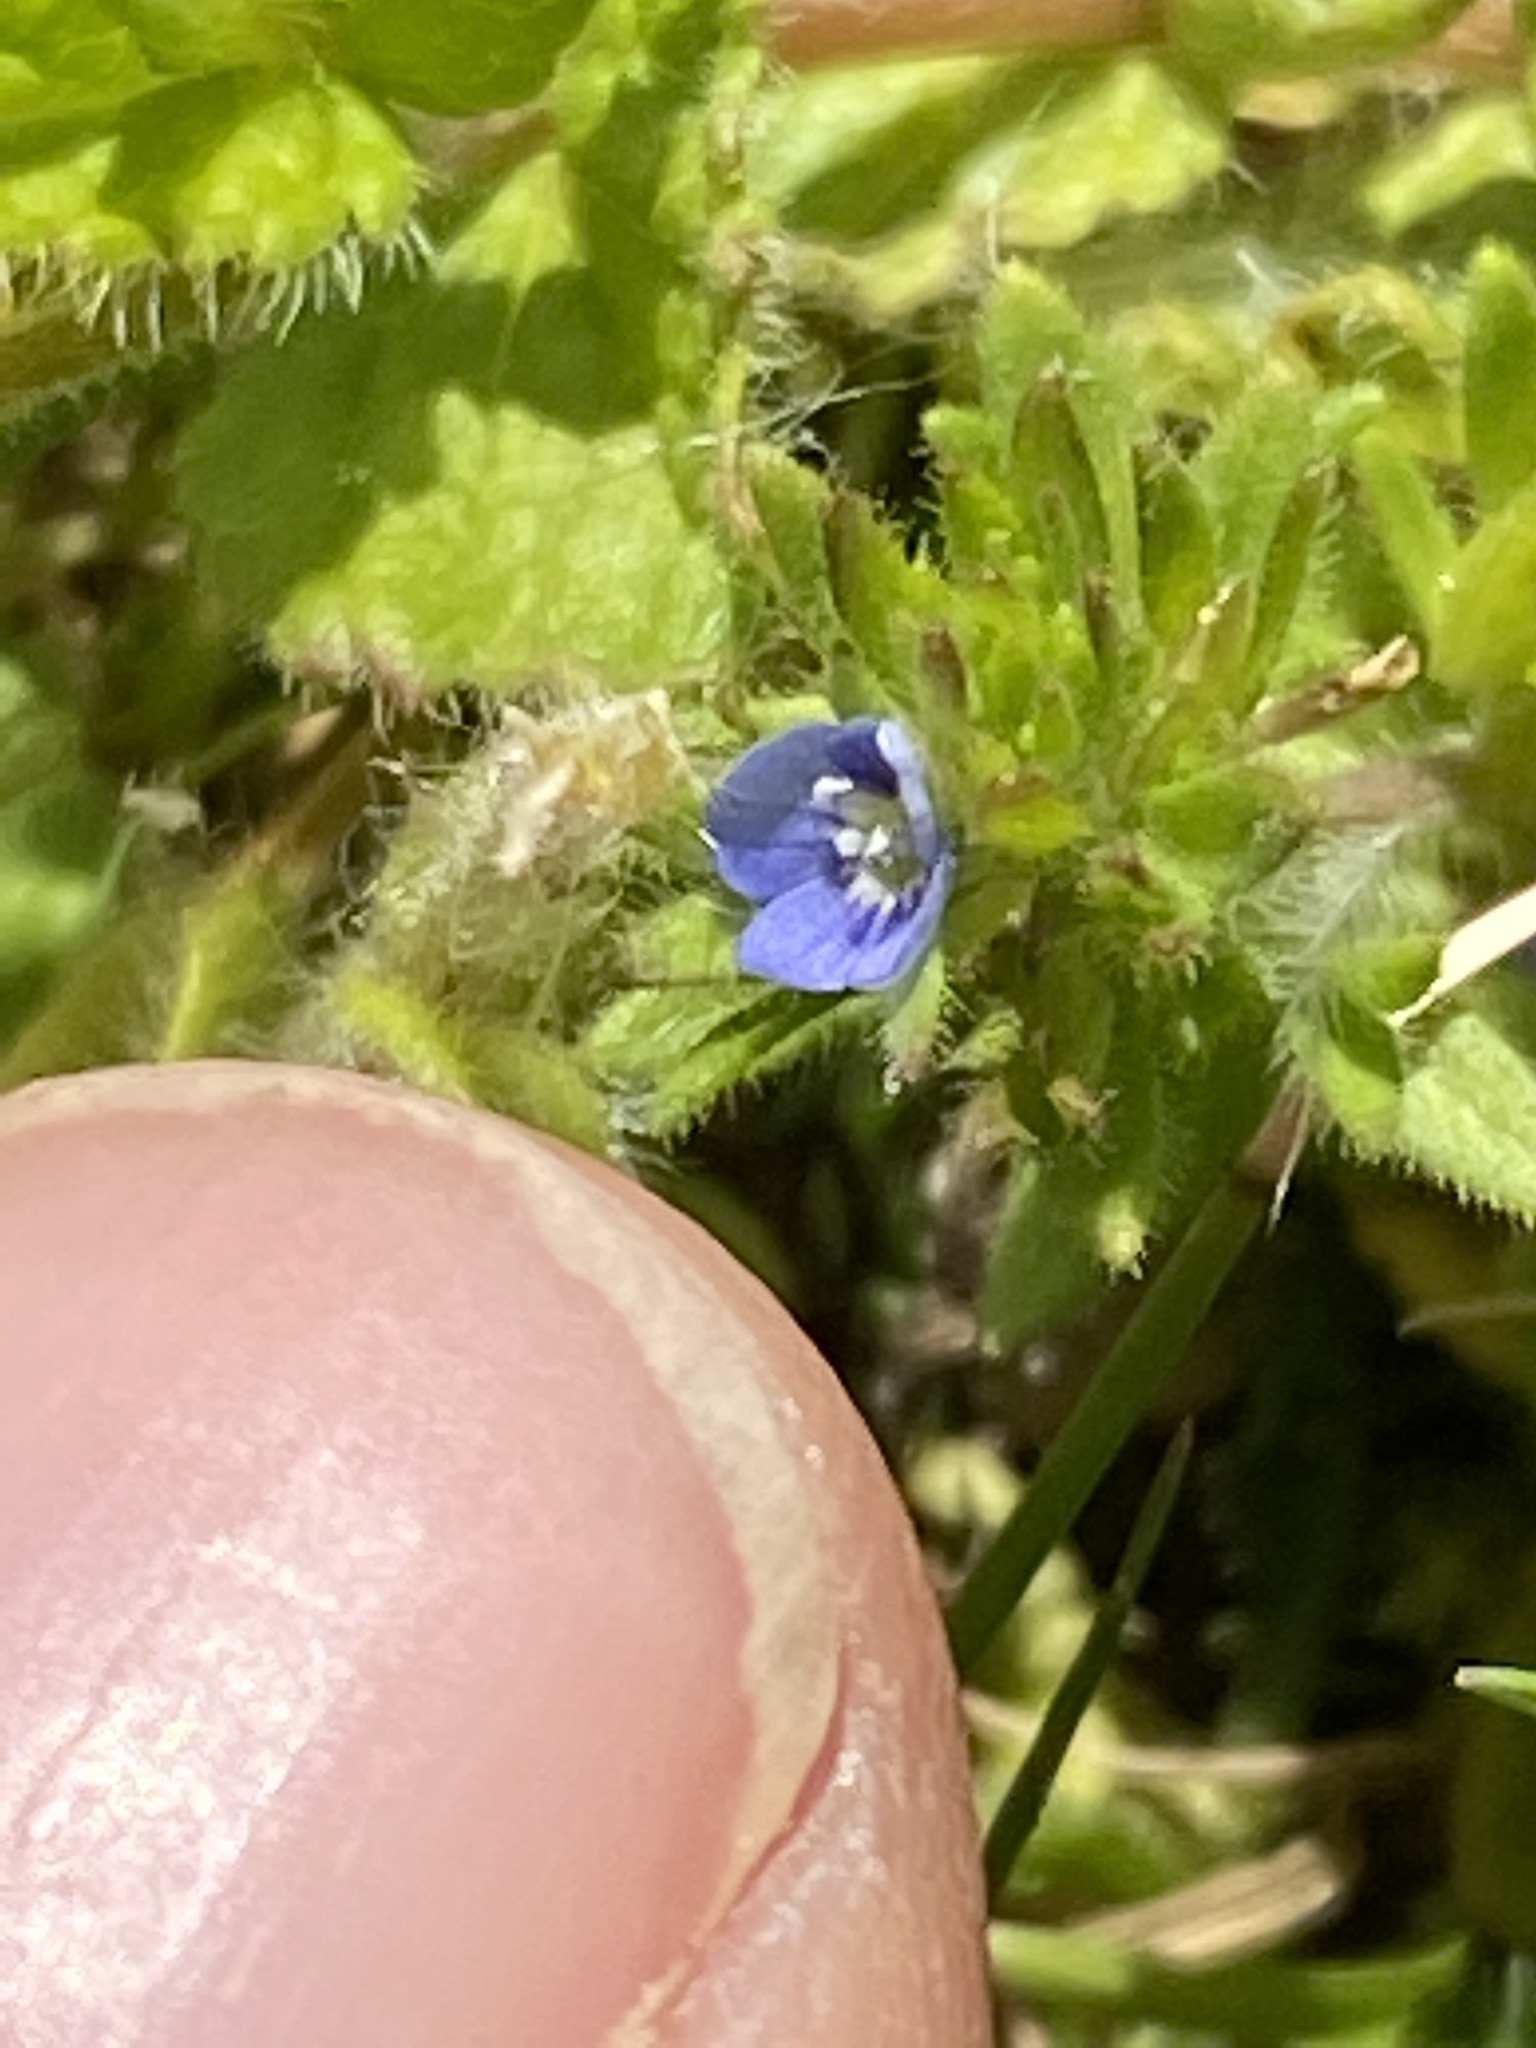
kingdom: Plantae
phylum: Tracheophyta
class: Magnoliopsida
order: Lamiales
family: Plantaginaceae
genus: Veronica
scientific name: Veronica arvensis
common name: Corn speedwell
